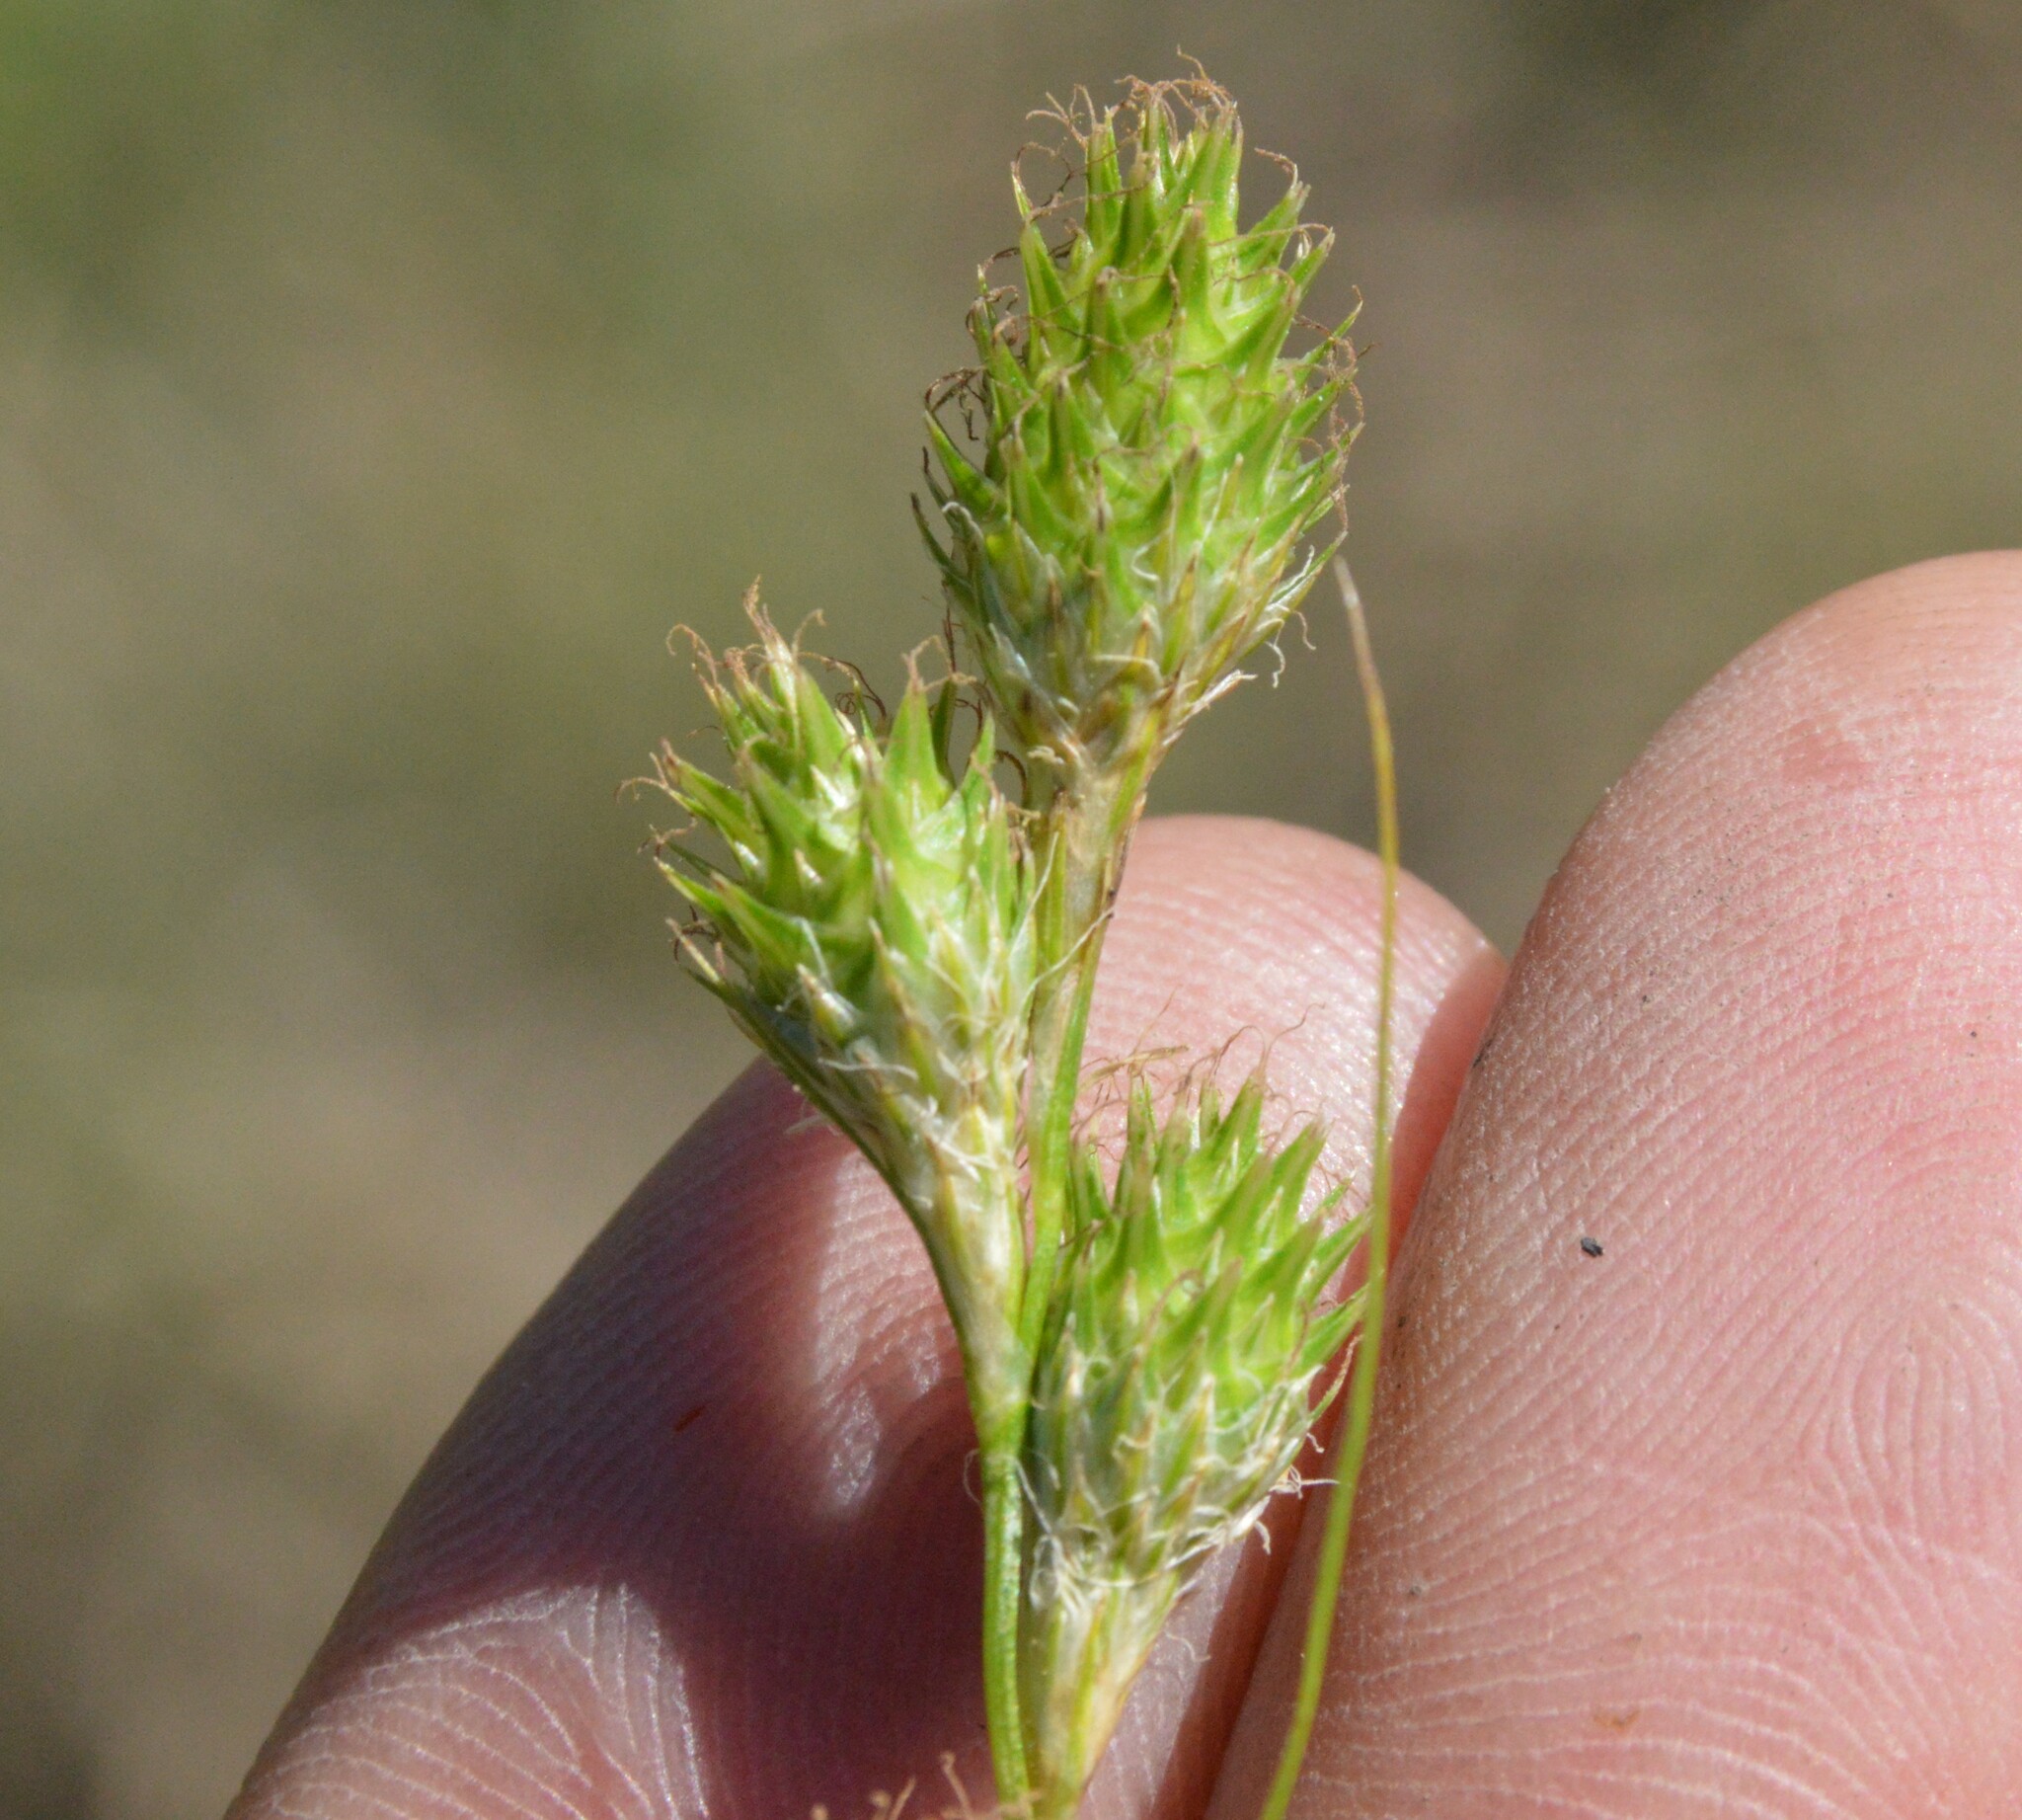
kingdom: Plantae
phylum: Tracheophyta
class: Liliopsida
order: Poales
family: Cyperaceae
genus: Carex
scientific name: Carex tetrastachya
